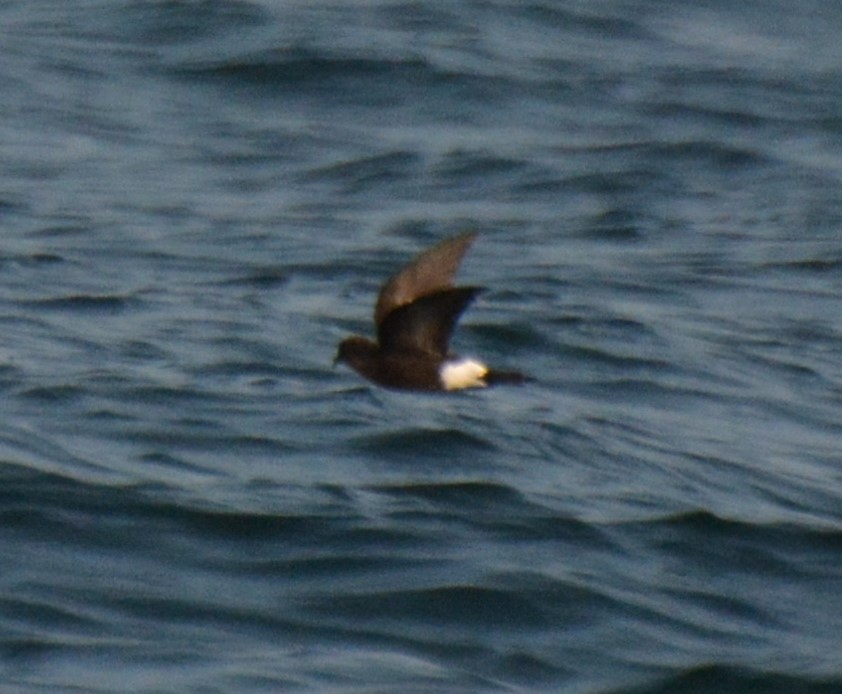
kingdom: Animalia
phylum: Chordata
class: Aves
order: Procellariiformes
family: Hydrobatidae
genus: Oceanites
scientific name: Oceanites oceanicus
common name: Wilson's storm petrel
